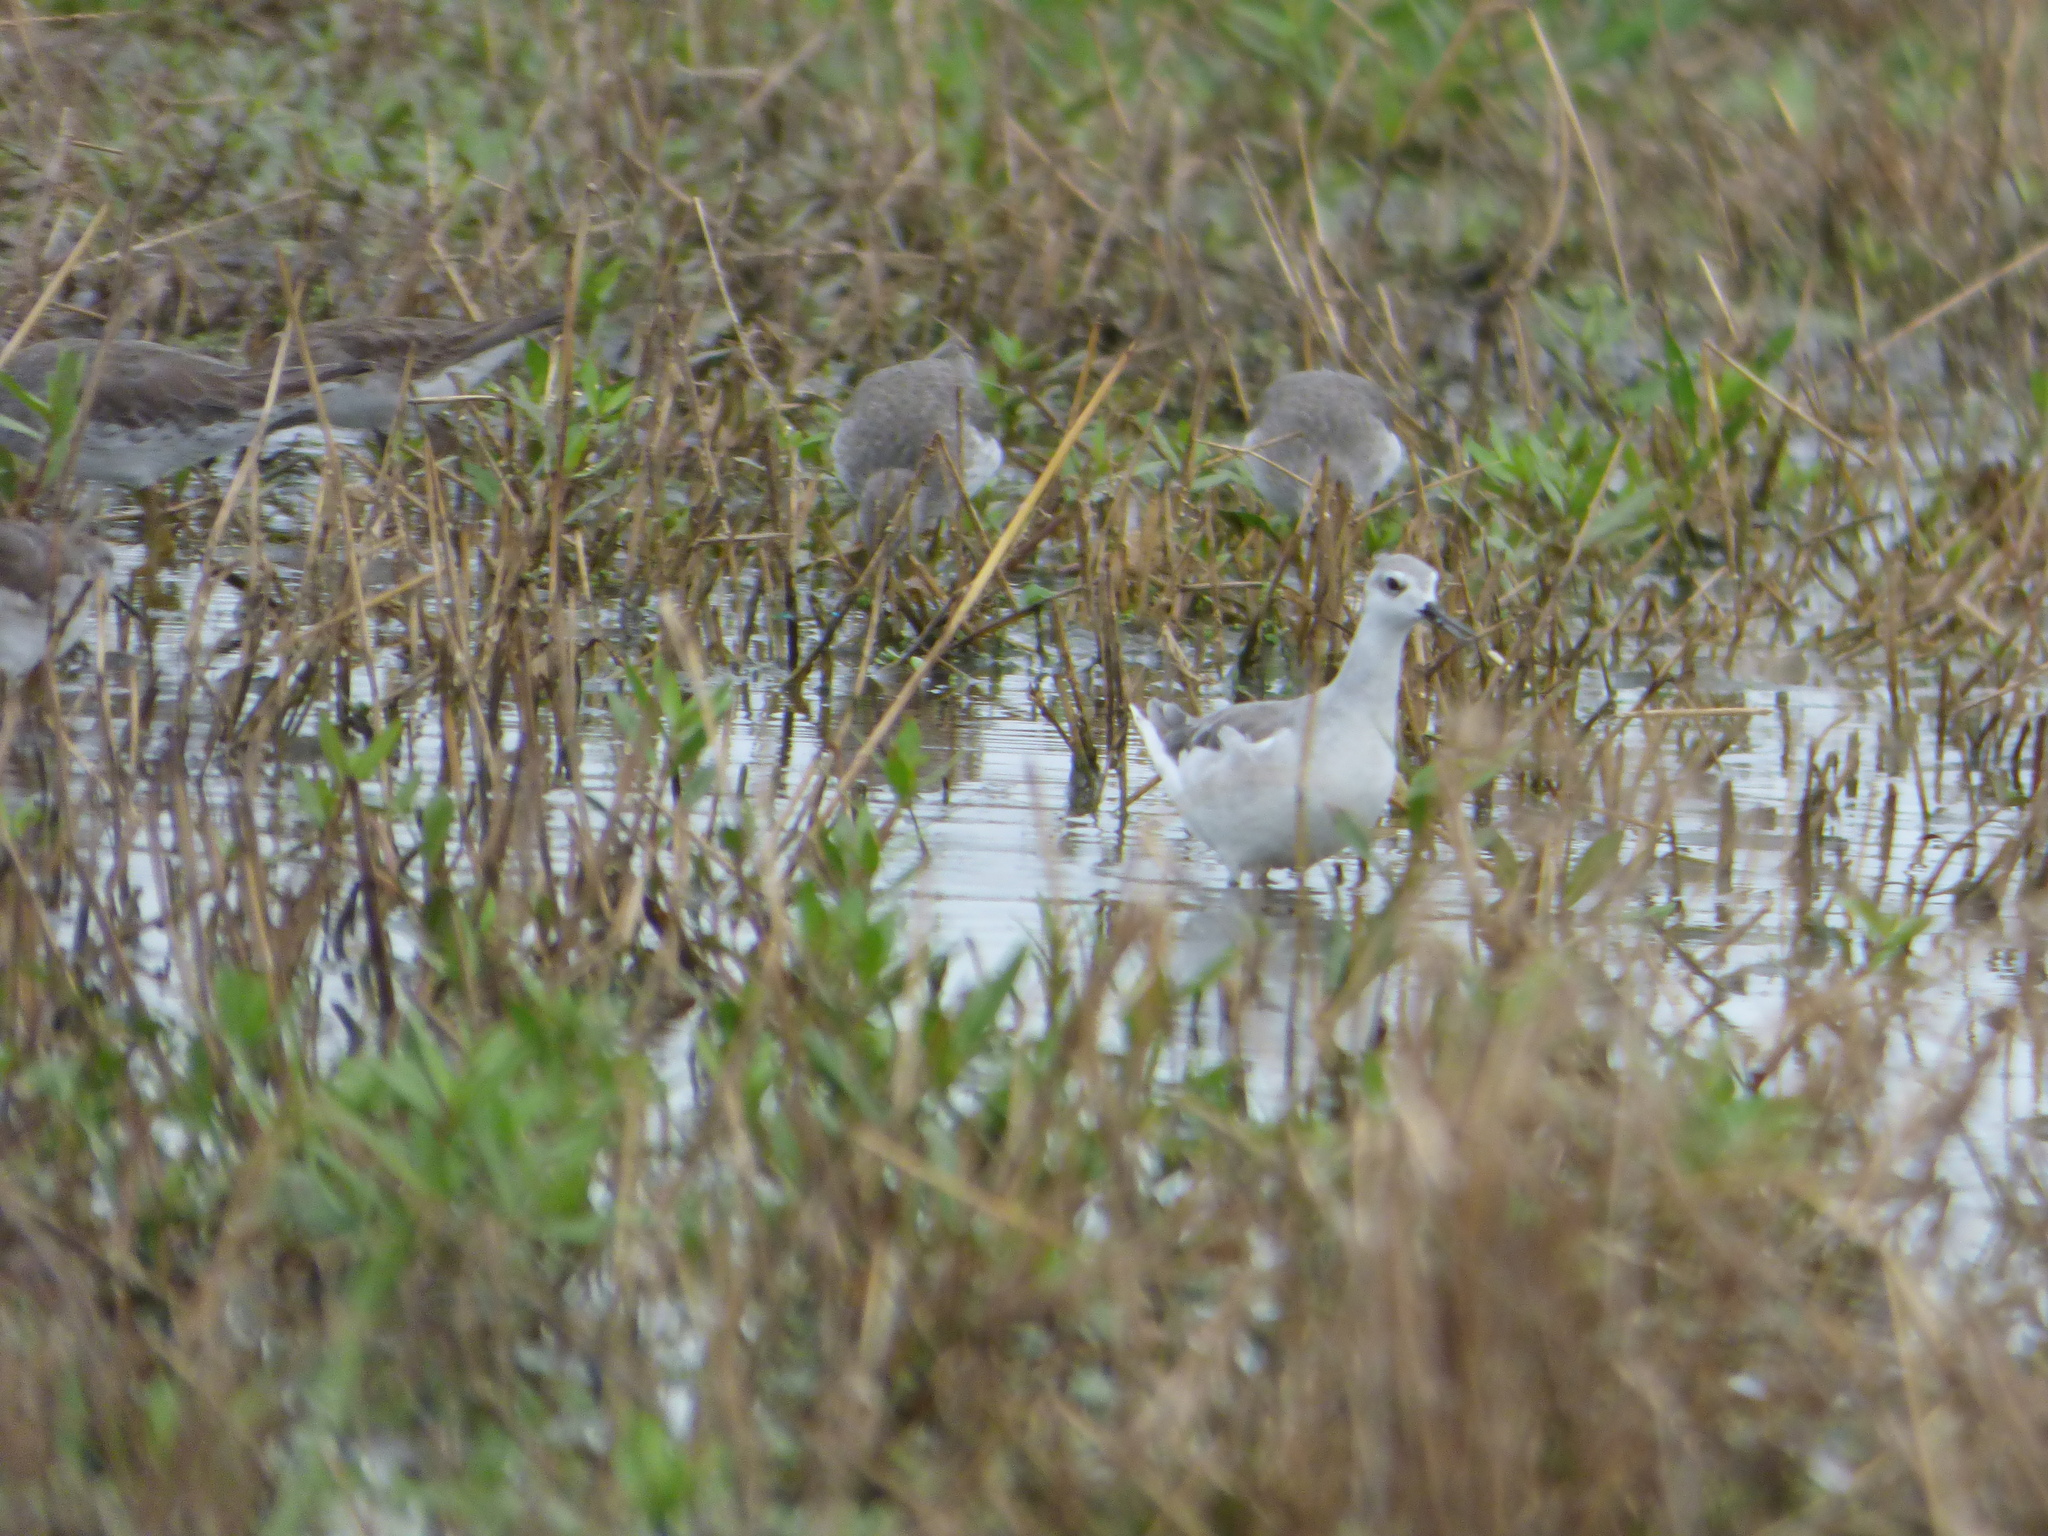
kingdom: Animalia
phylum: Chordata
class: Aves
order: Charadriiformes
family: Scolopacidae
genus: Phalaropus
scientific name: Phalaropus tricolor
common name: Wilson's phalarope
